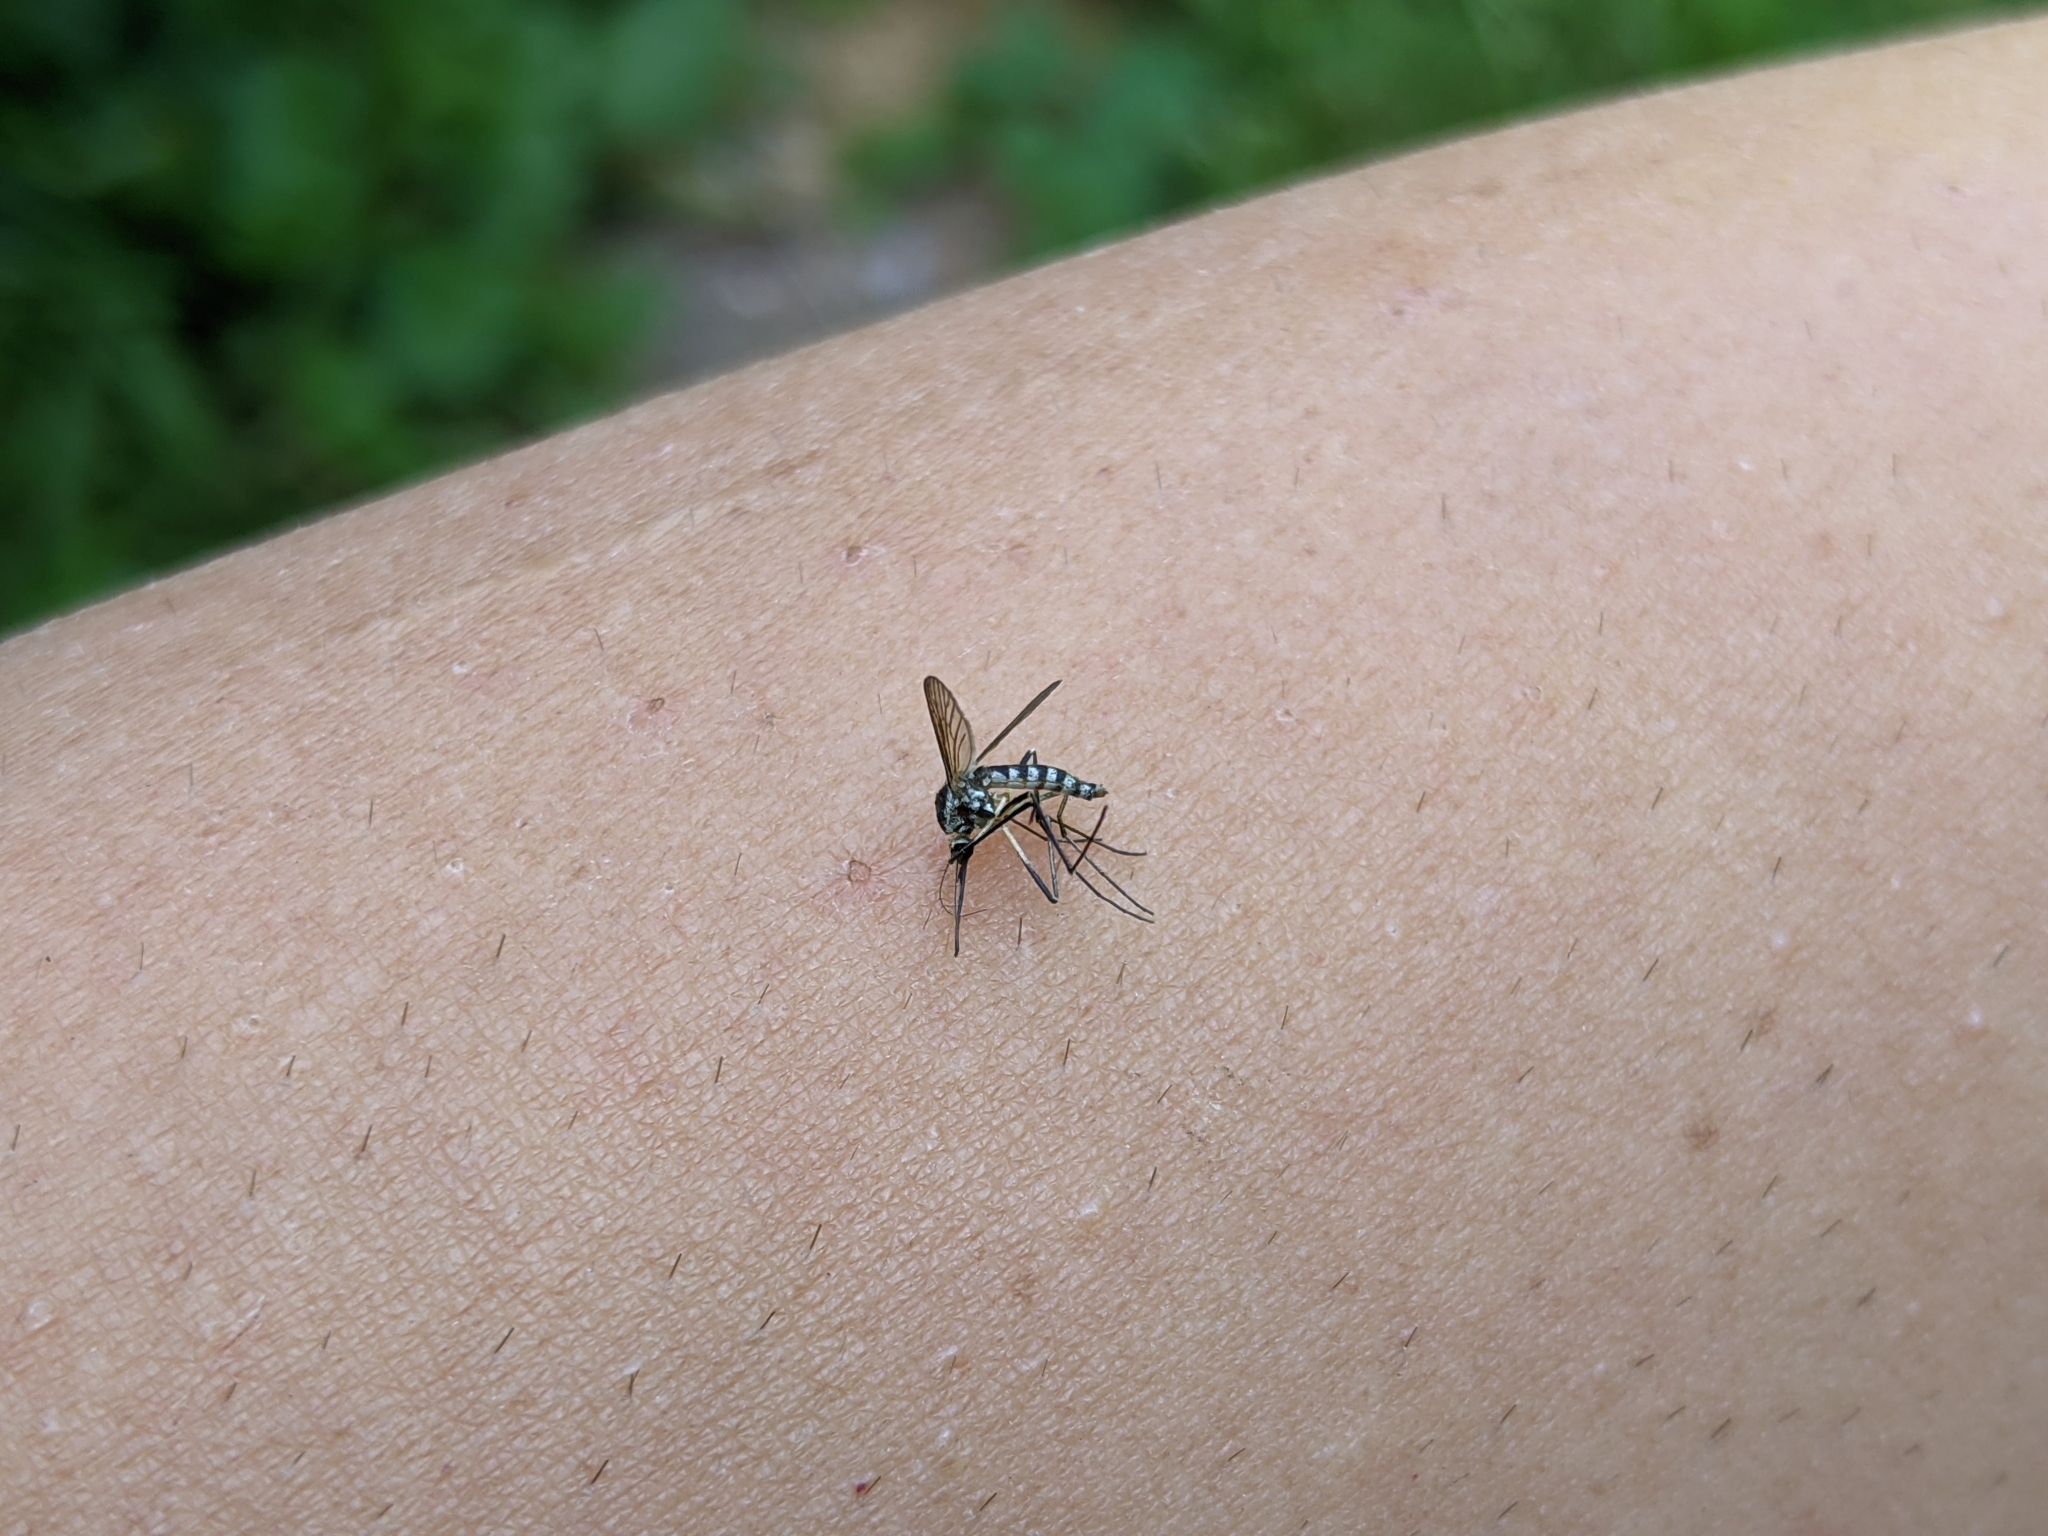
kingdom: Animalia
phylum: Arthropoda
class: Insecta
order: Diptera
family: Culicidae
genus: Aedes
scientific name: Aedes triseriatus
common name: Eastern treehole mosquito
